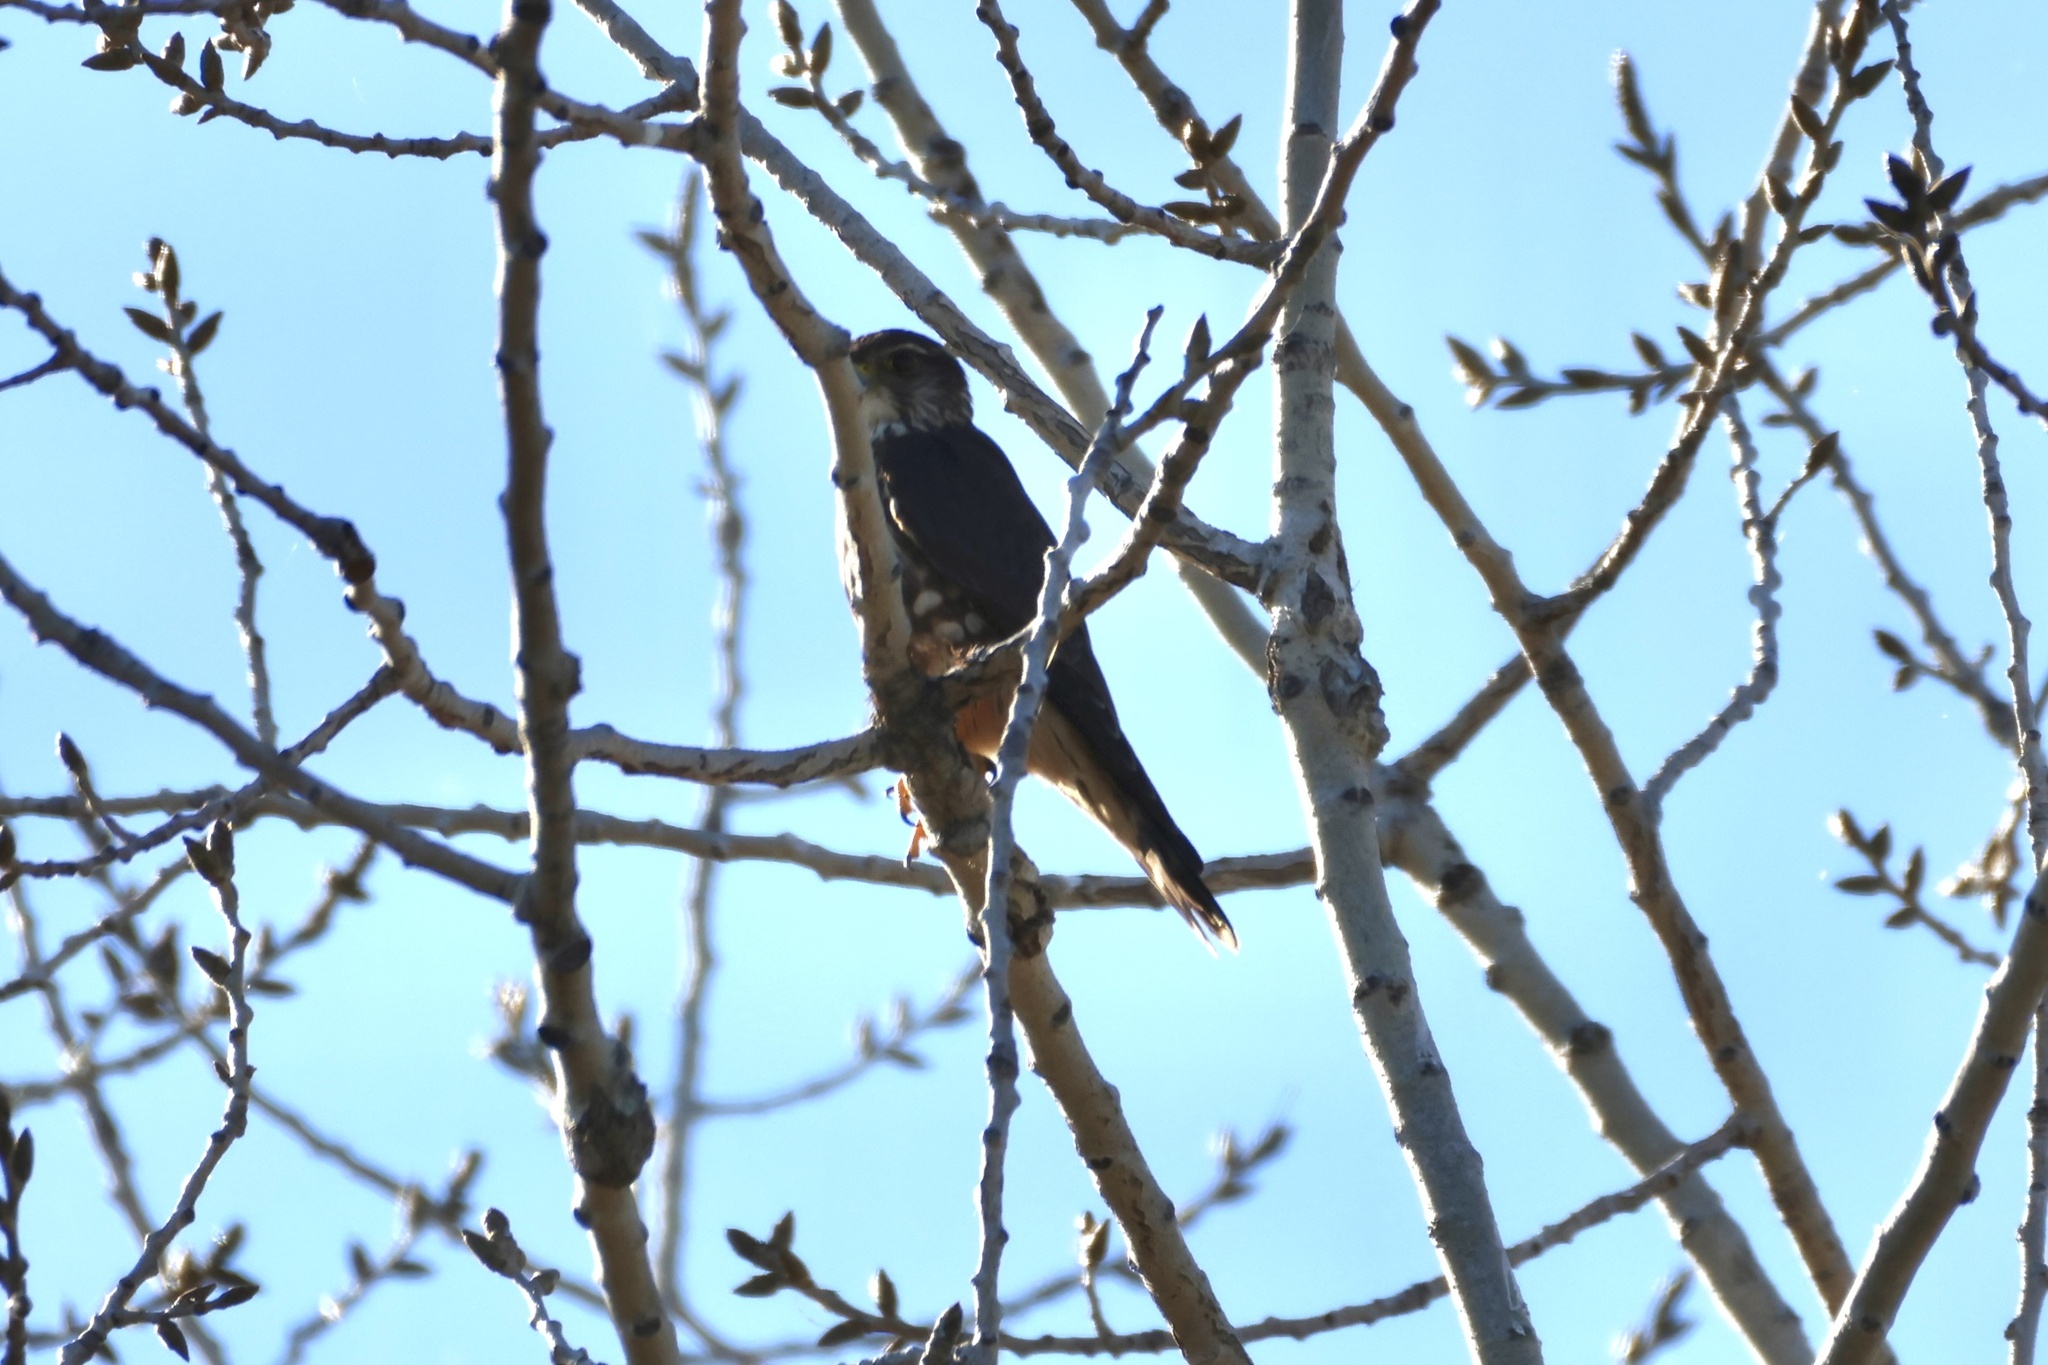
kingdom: Animalia
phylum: Chordata
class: Aves
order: Falconiformes
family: Falconidae
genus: Falco
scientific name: Falco columbarius
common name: Merlin
